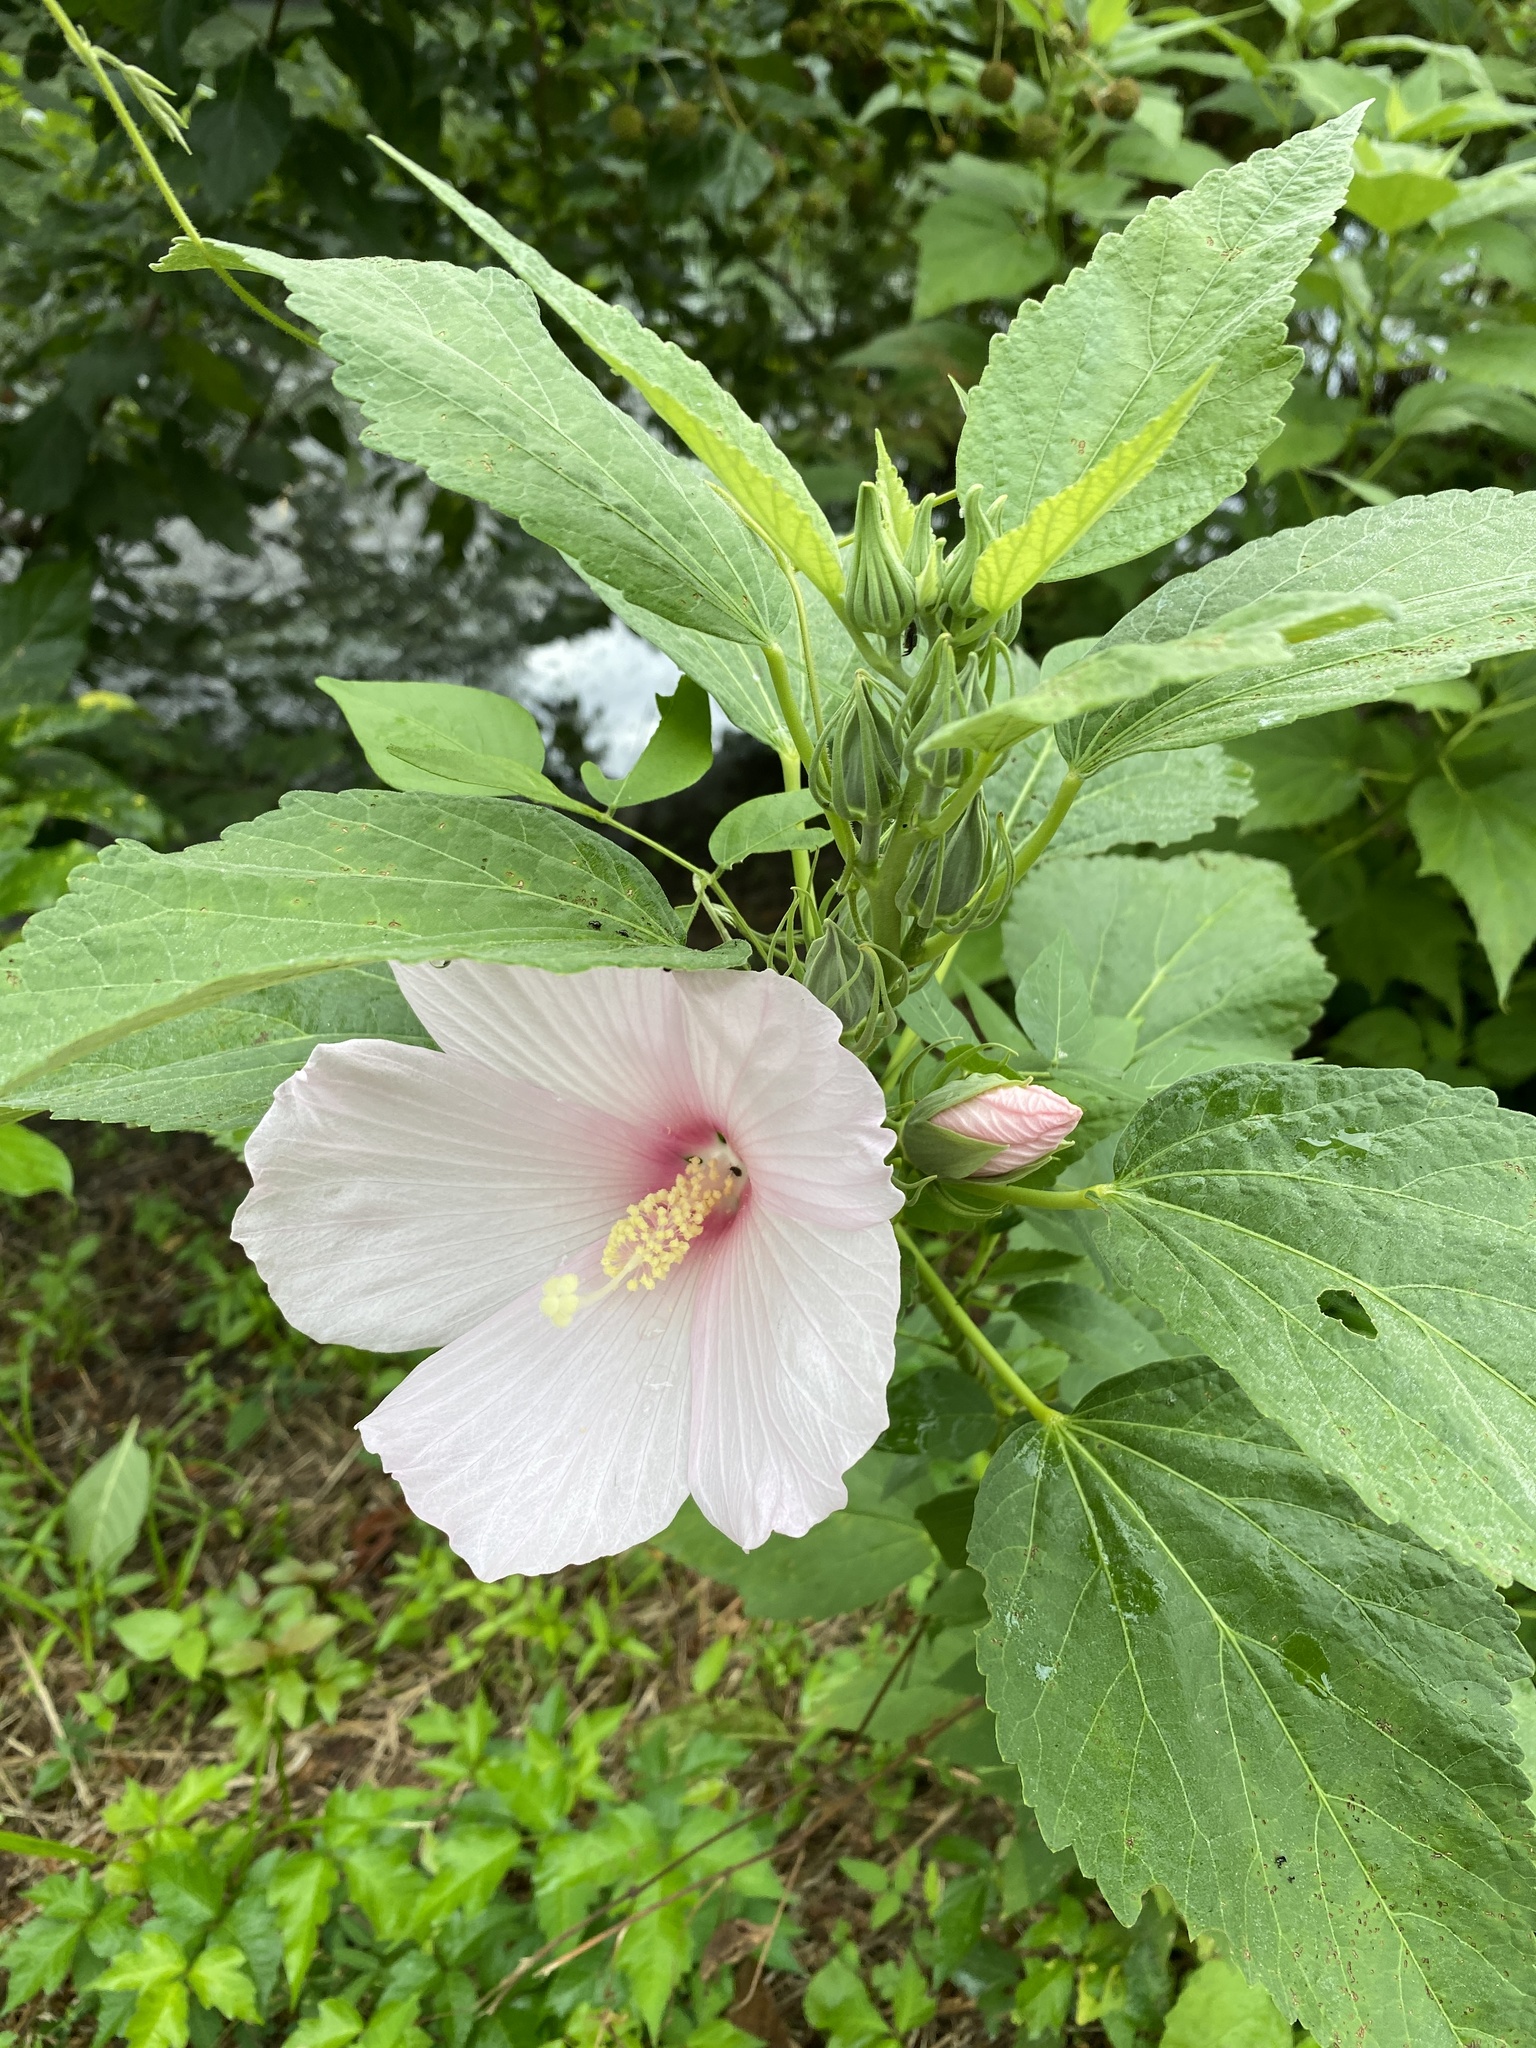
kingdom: Plantae
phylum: Tracheophyta
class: Magnoliopsida
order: Malvales
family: Malvaceae
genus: Hibiscus
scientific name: Hibiscus syriacus
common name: Syrian ketmia
